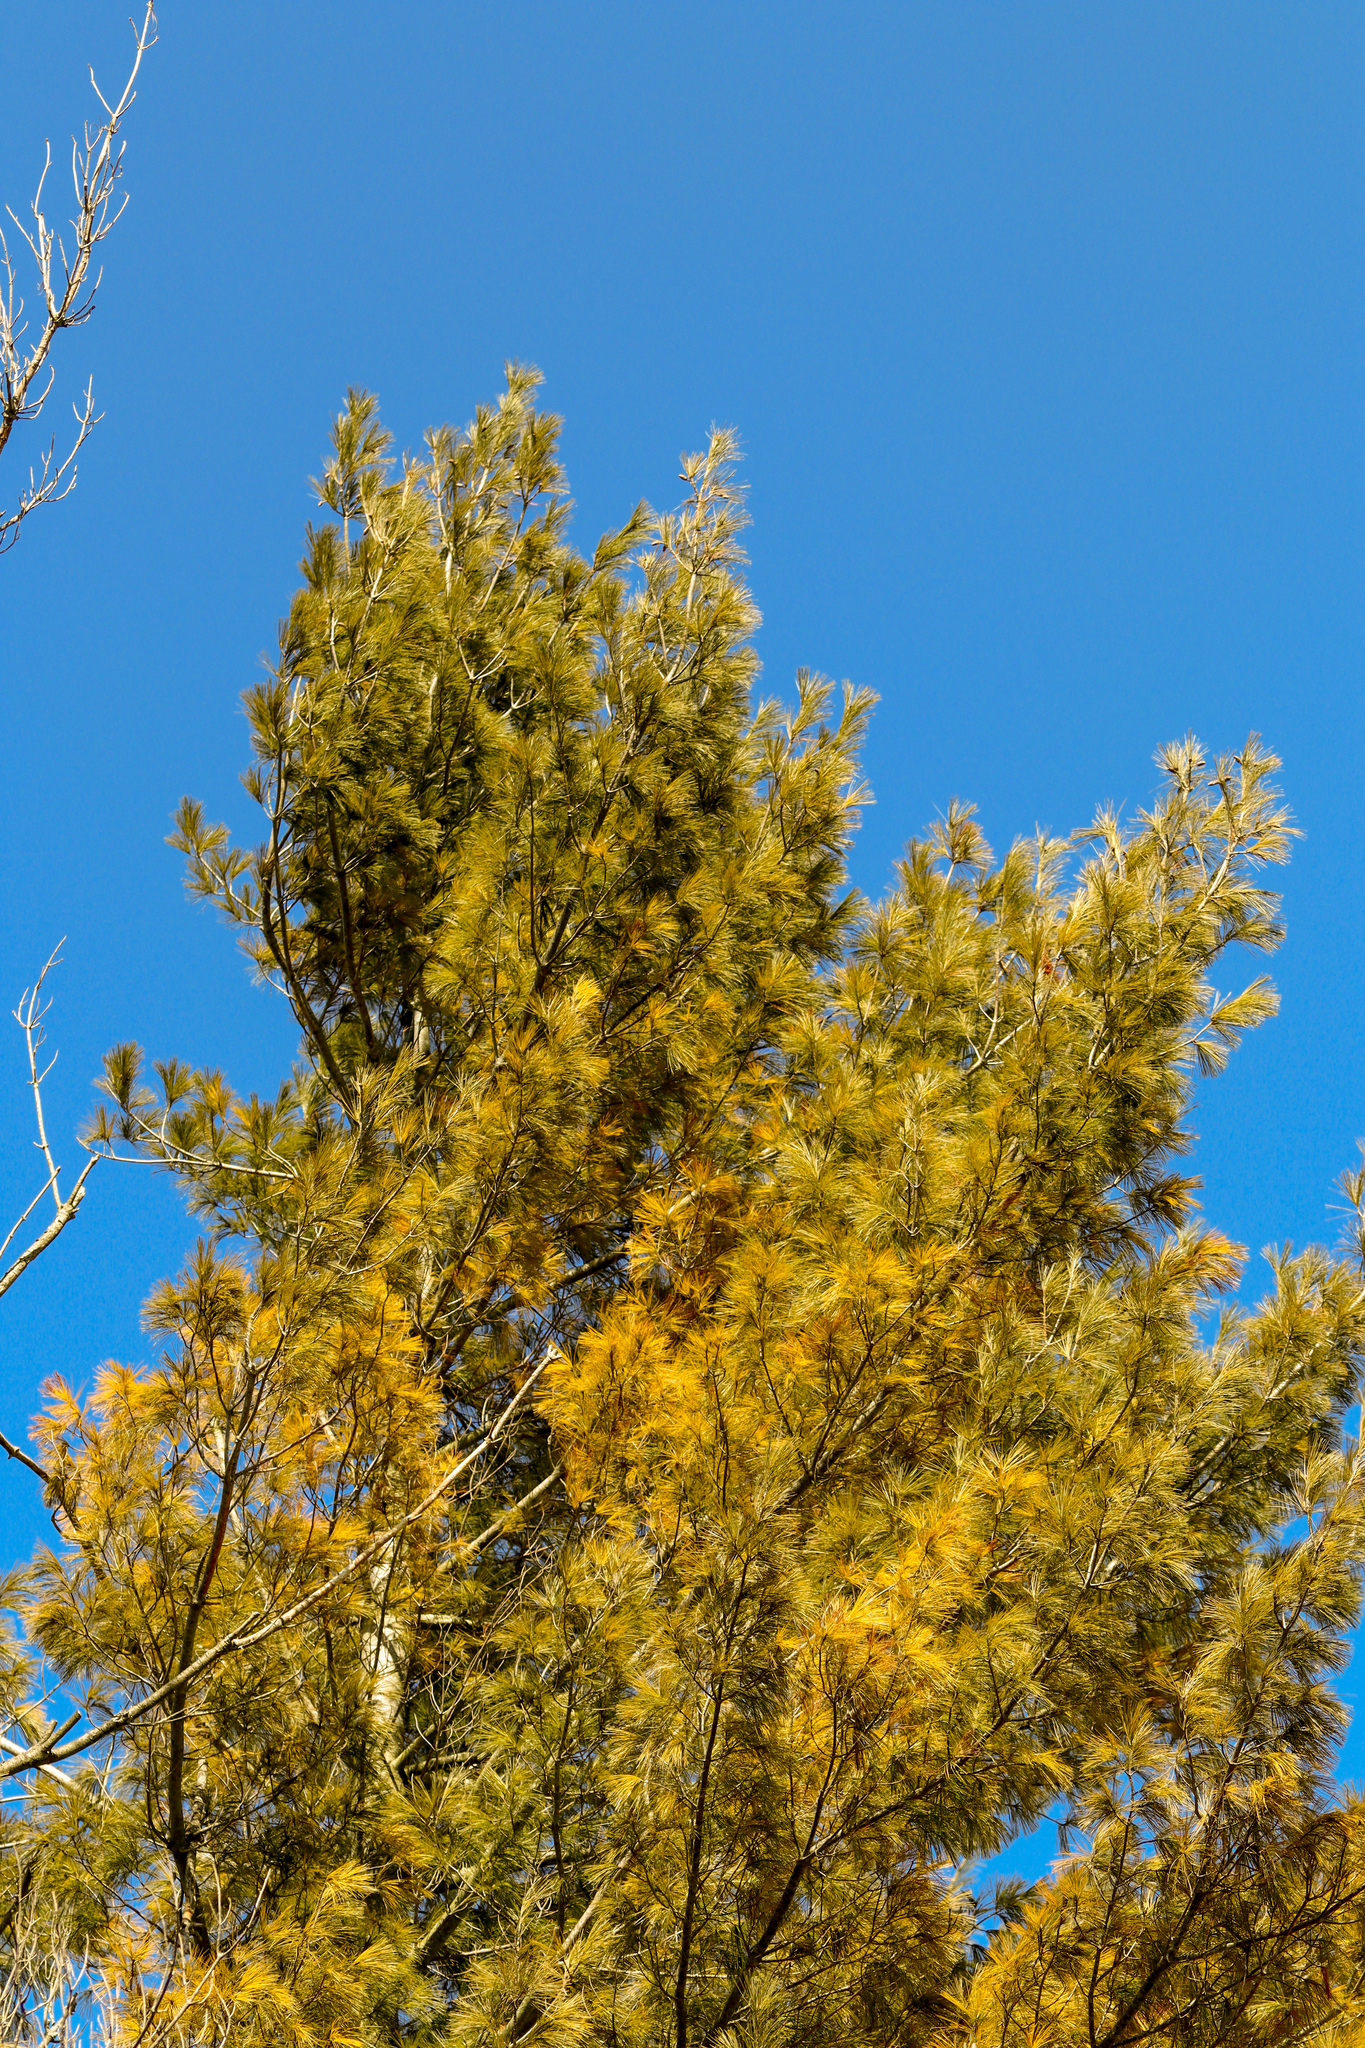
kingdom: Plantae
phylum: Tracheophyta
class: Pinopsida
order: Pinales
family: Pinaceae
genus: Pinus
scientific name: Pinus strobus
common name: Weymouth pine
